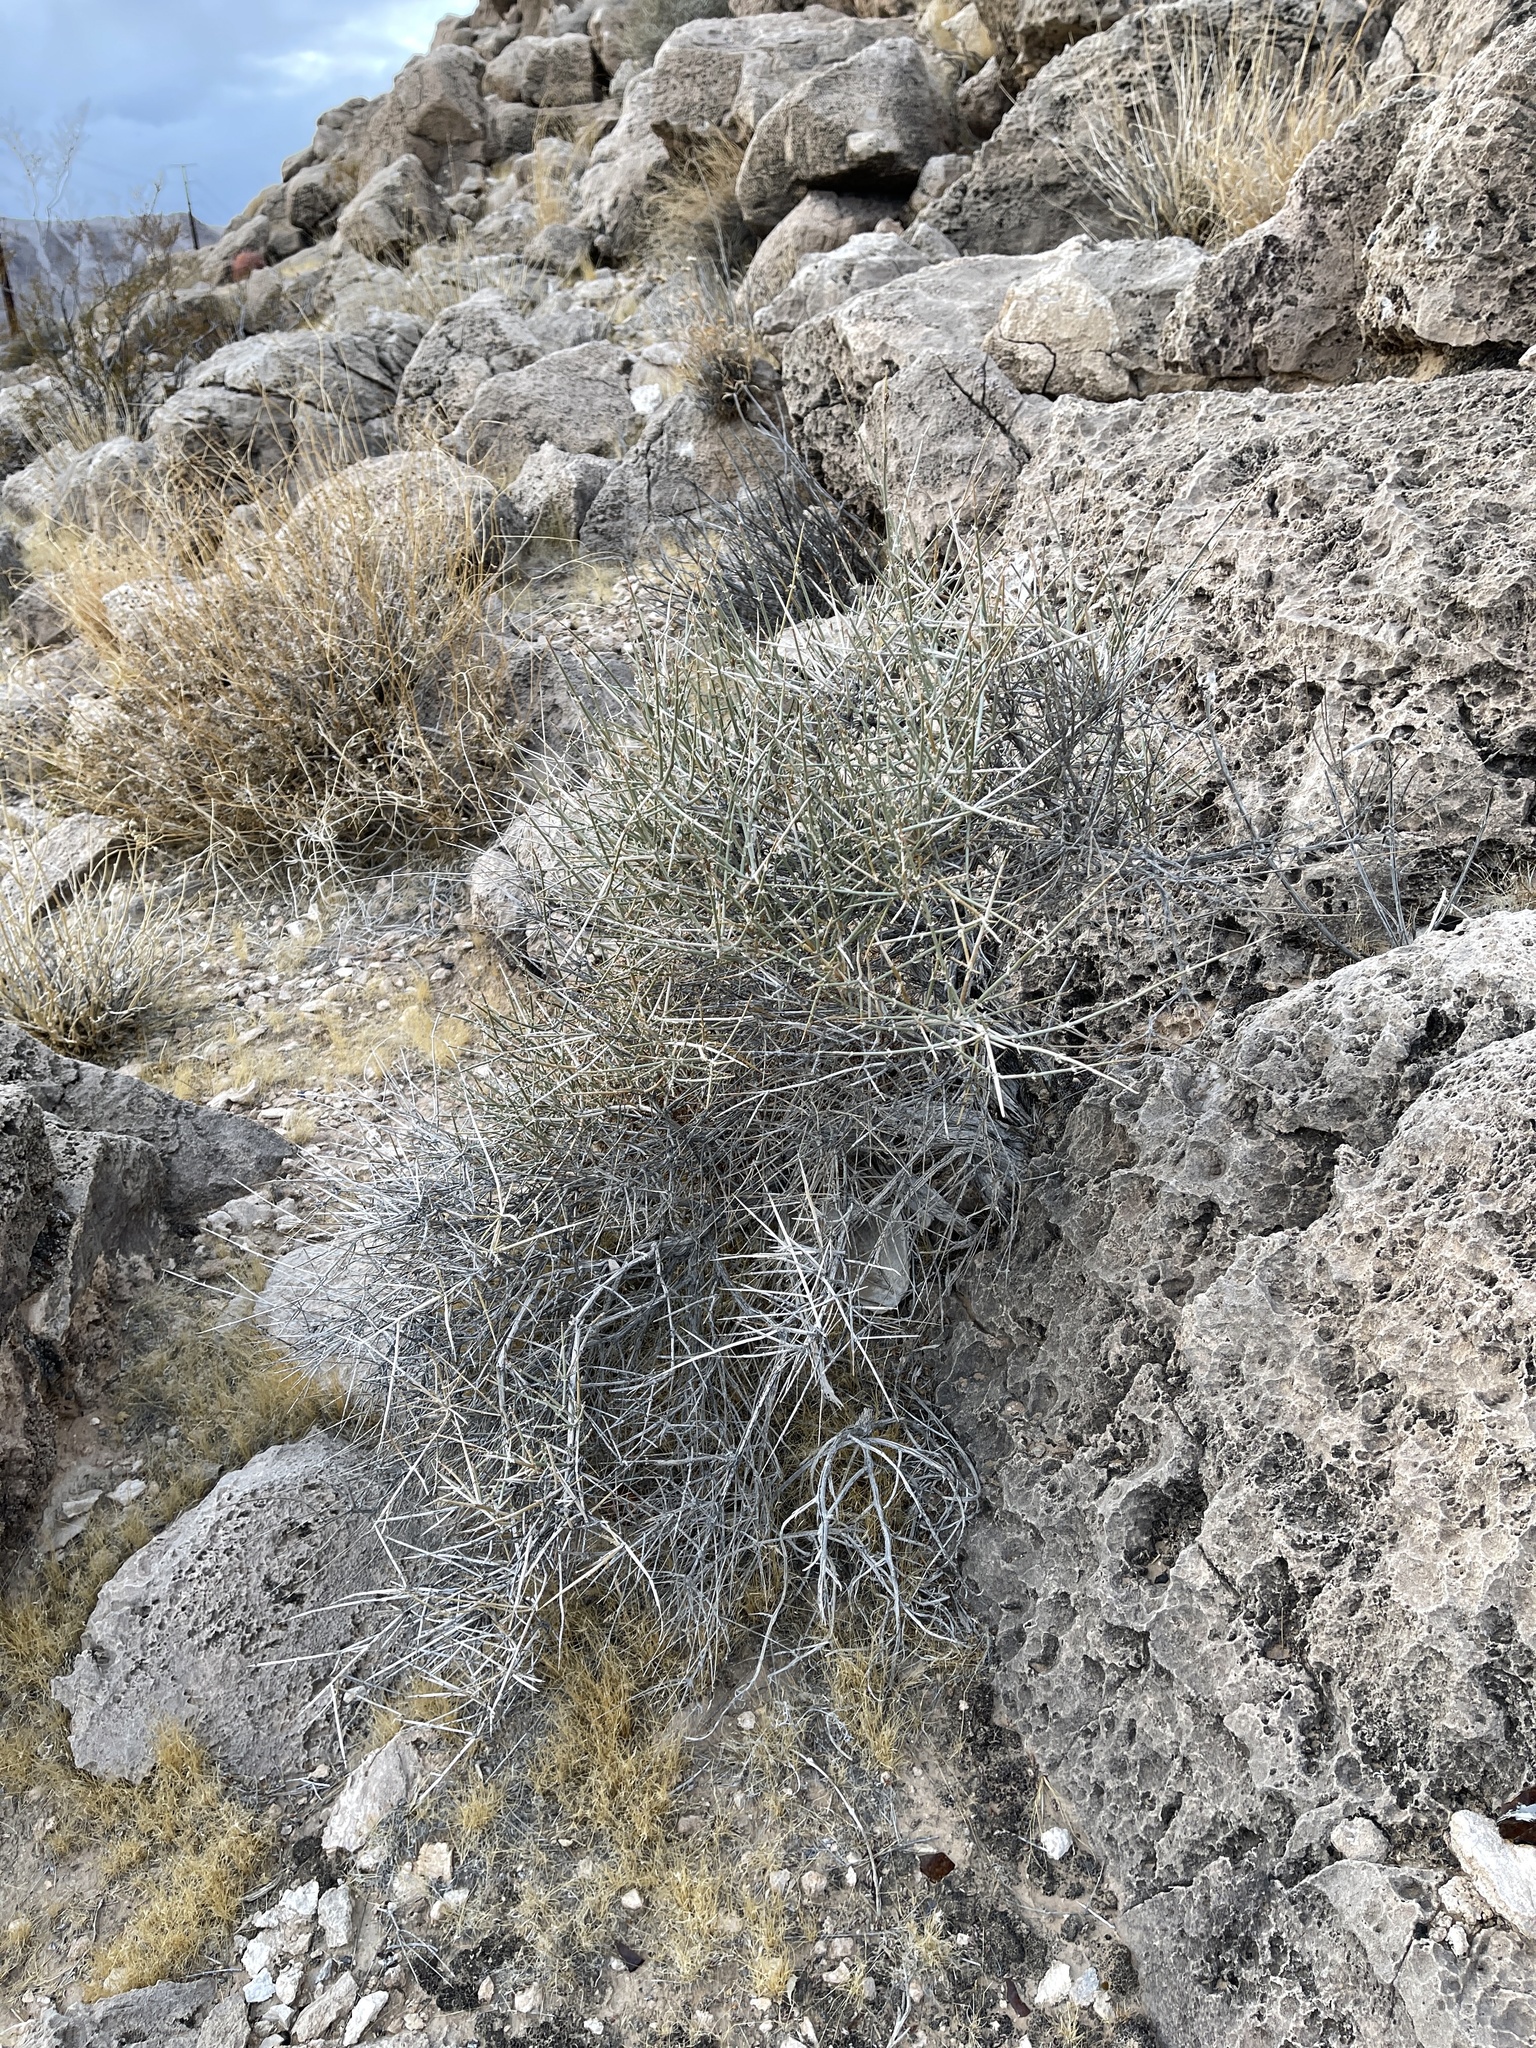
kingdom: Plantae
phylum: Tracheophyta
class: Gnetopsida
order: Ephedrales
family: Ephedraceae
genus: Ephedra
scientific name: Ephedra nevadensis
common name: Gray ephedra
